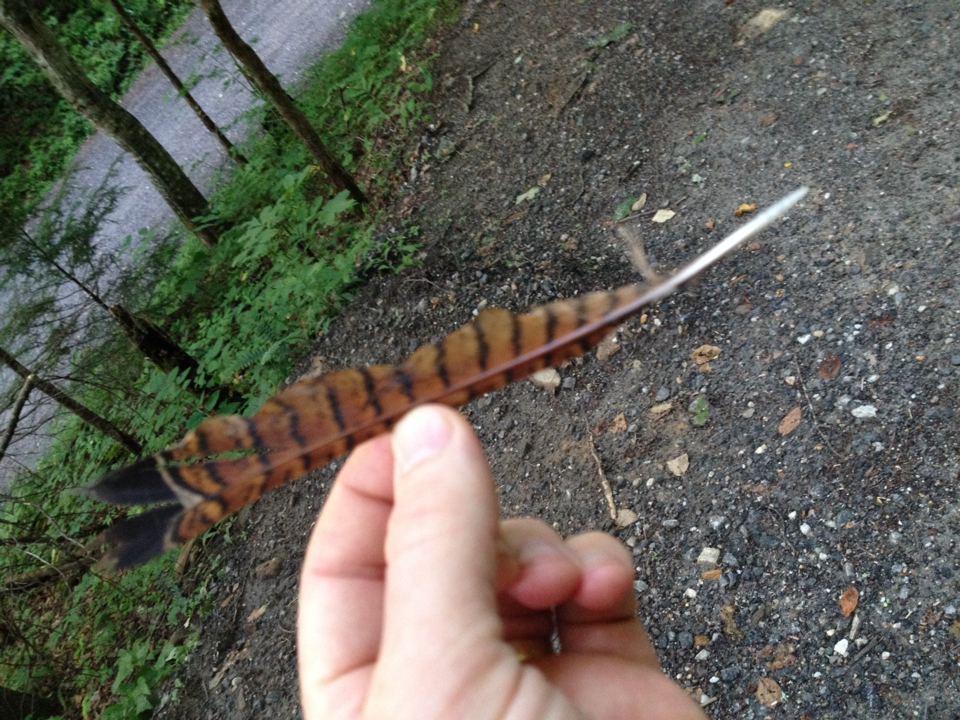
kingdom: Animalia
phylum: Chordata
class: Aves
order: Galliformes
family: Phasianidae
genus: Bonasa
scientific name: Bonasa umbellus
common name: Ruffed grouse
